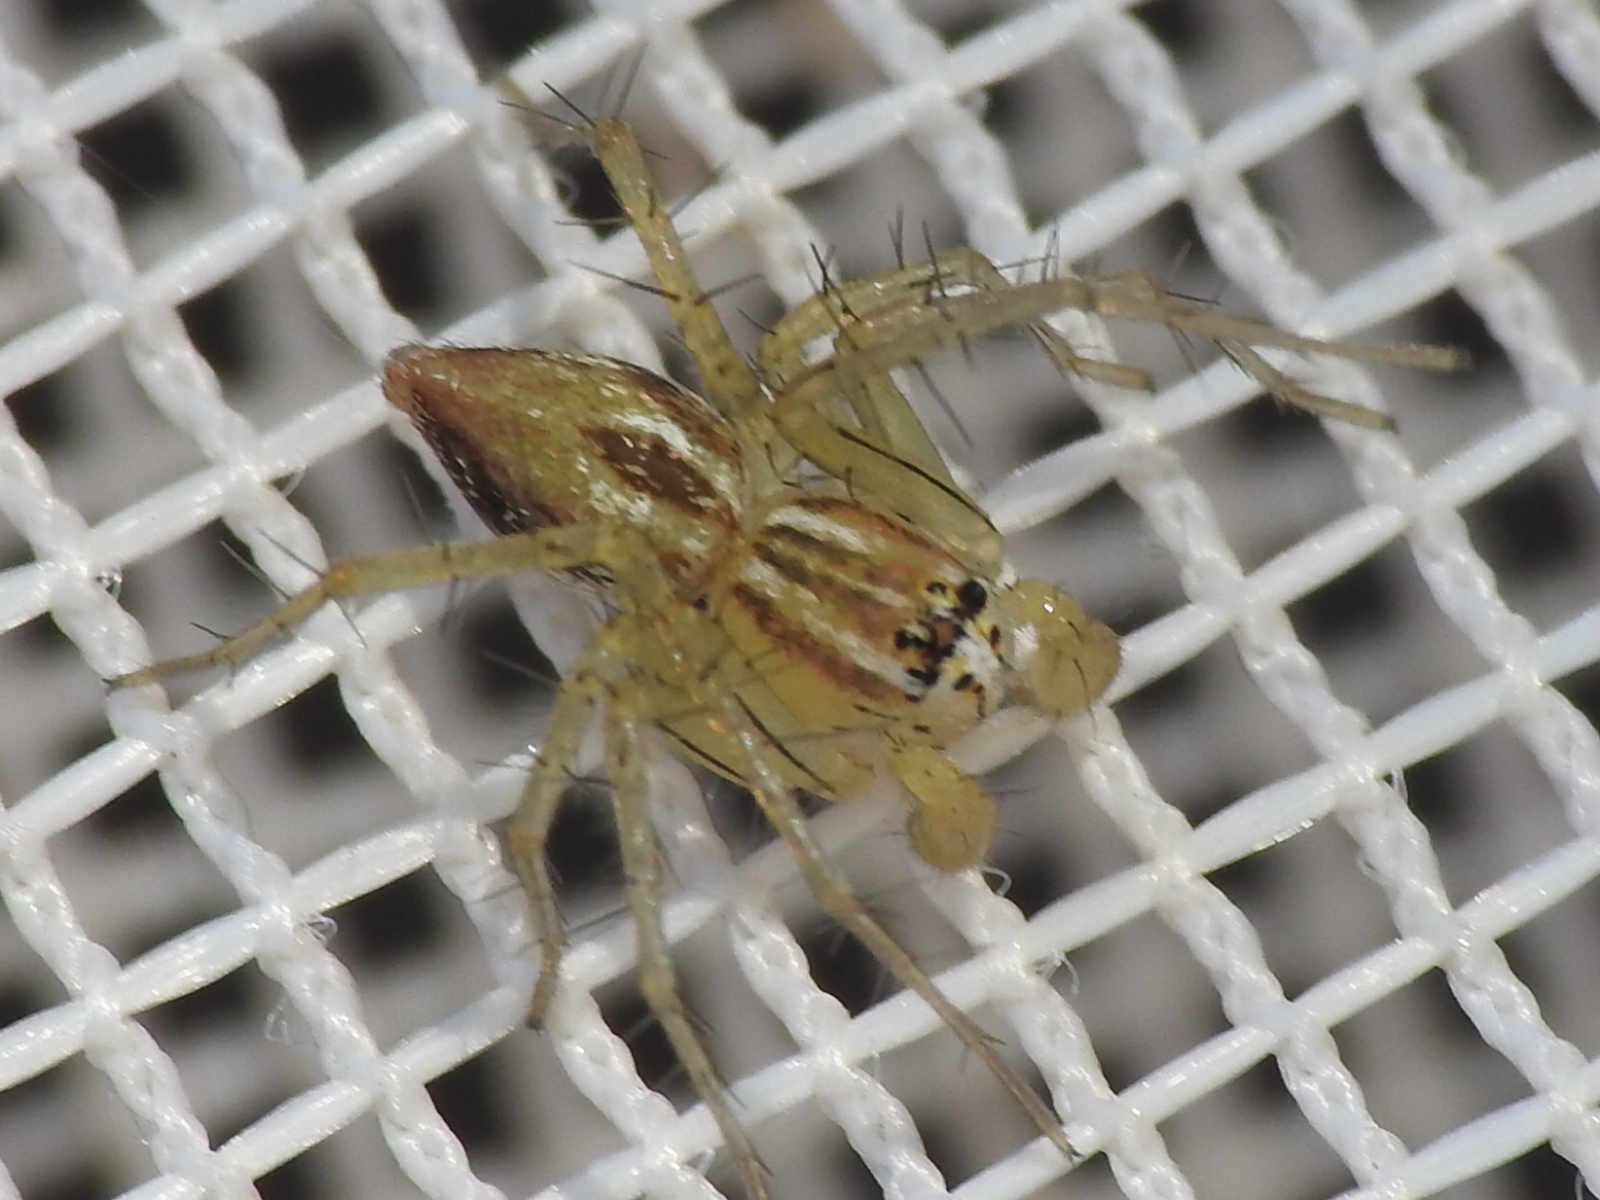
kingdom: Animalia
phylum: Arthropoda
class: Arachnida
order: Araneae
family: Oxyopidae
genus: Oxyopes
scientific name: Oxyopes salticus
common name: Lynx spiders
